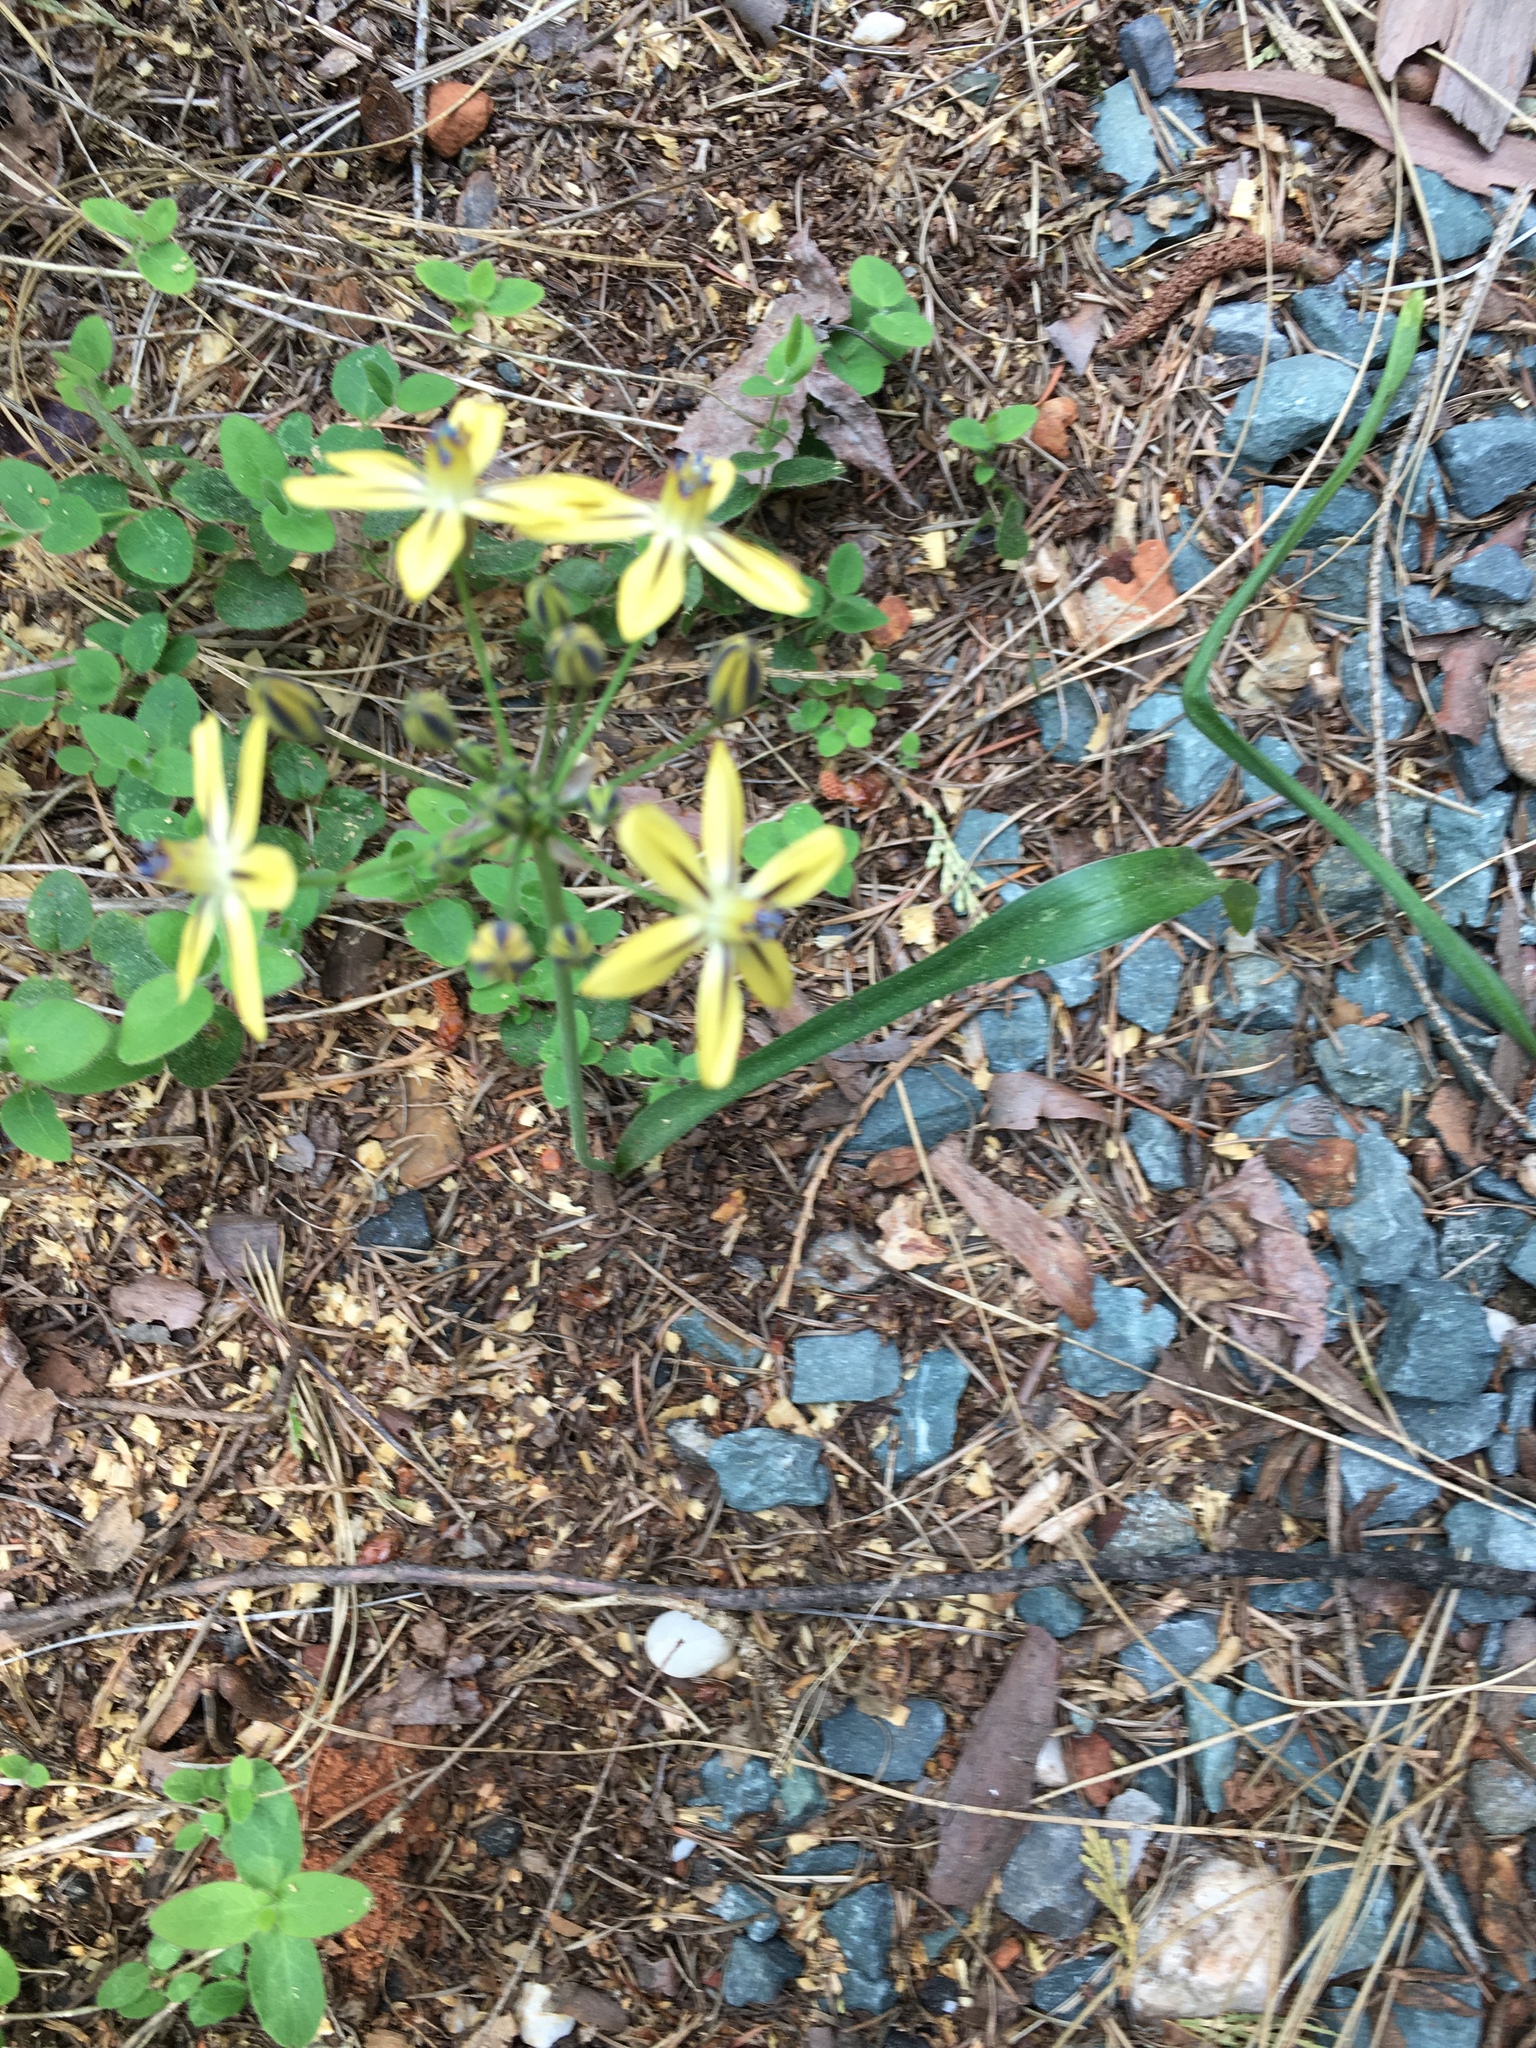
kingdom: Plantae
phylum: Tracheophyta
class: Liliopsida
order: Asparagales
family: Asparagaceae
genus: Triteleia
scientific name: Triteleia ixioides
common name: Yellow-brodiaea
